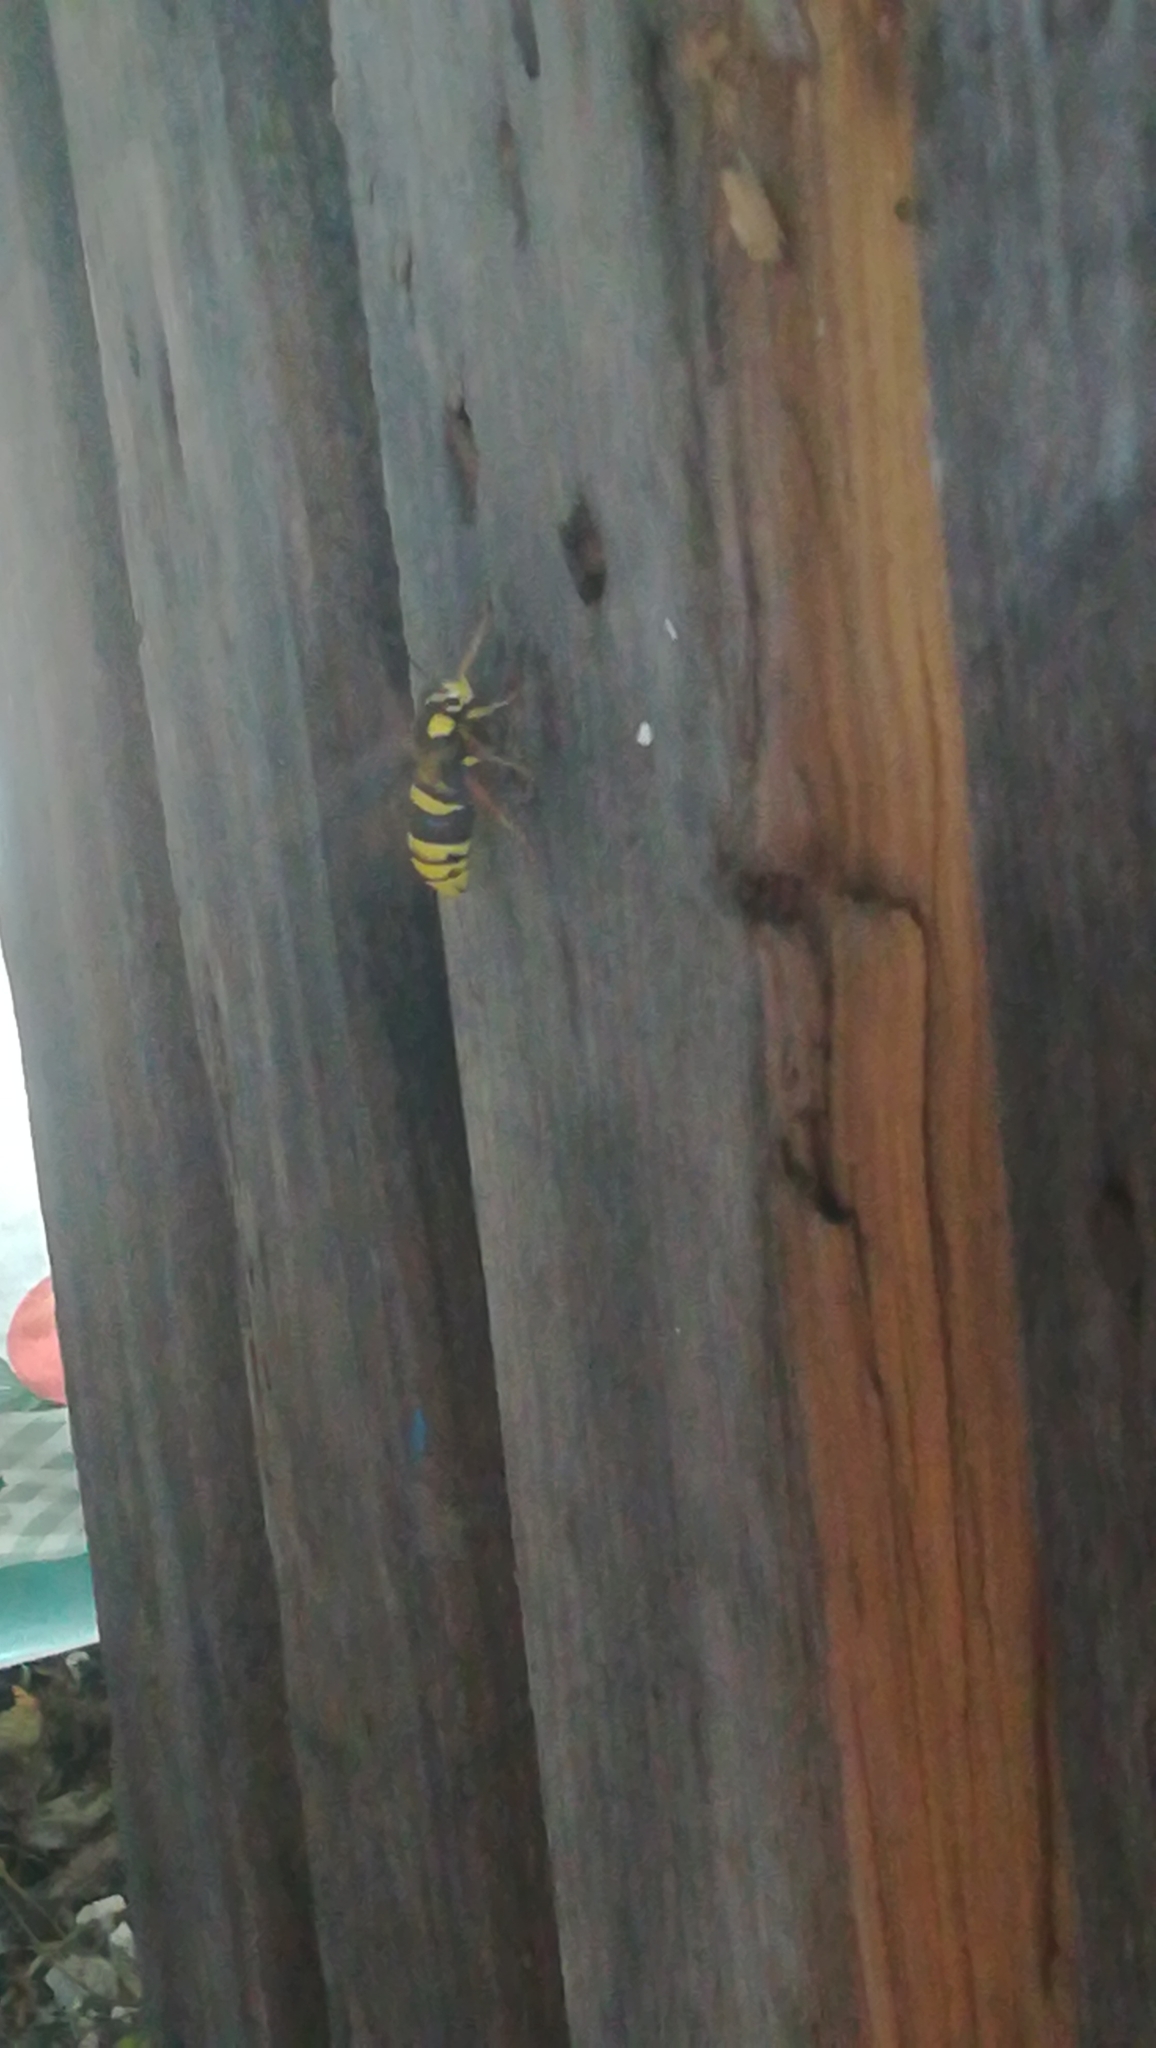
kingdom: Animalia
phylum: Arthropoda
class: Insecta
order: Lepidoptera
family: Sesiidae
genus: Sesia
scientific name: Sesia apiformis
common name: Hornet moth
